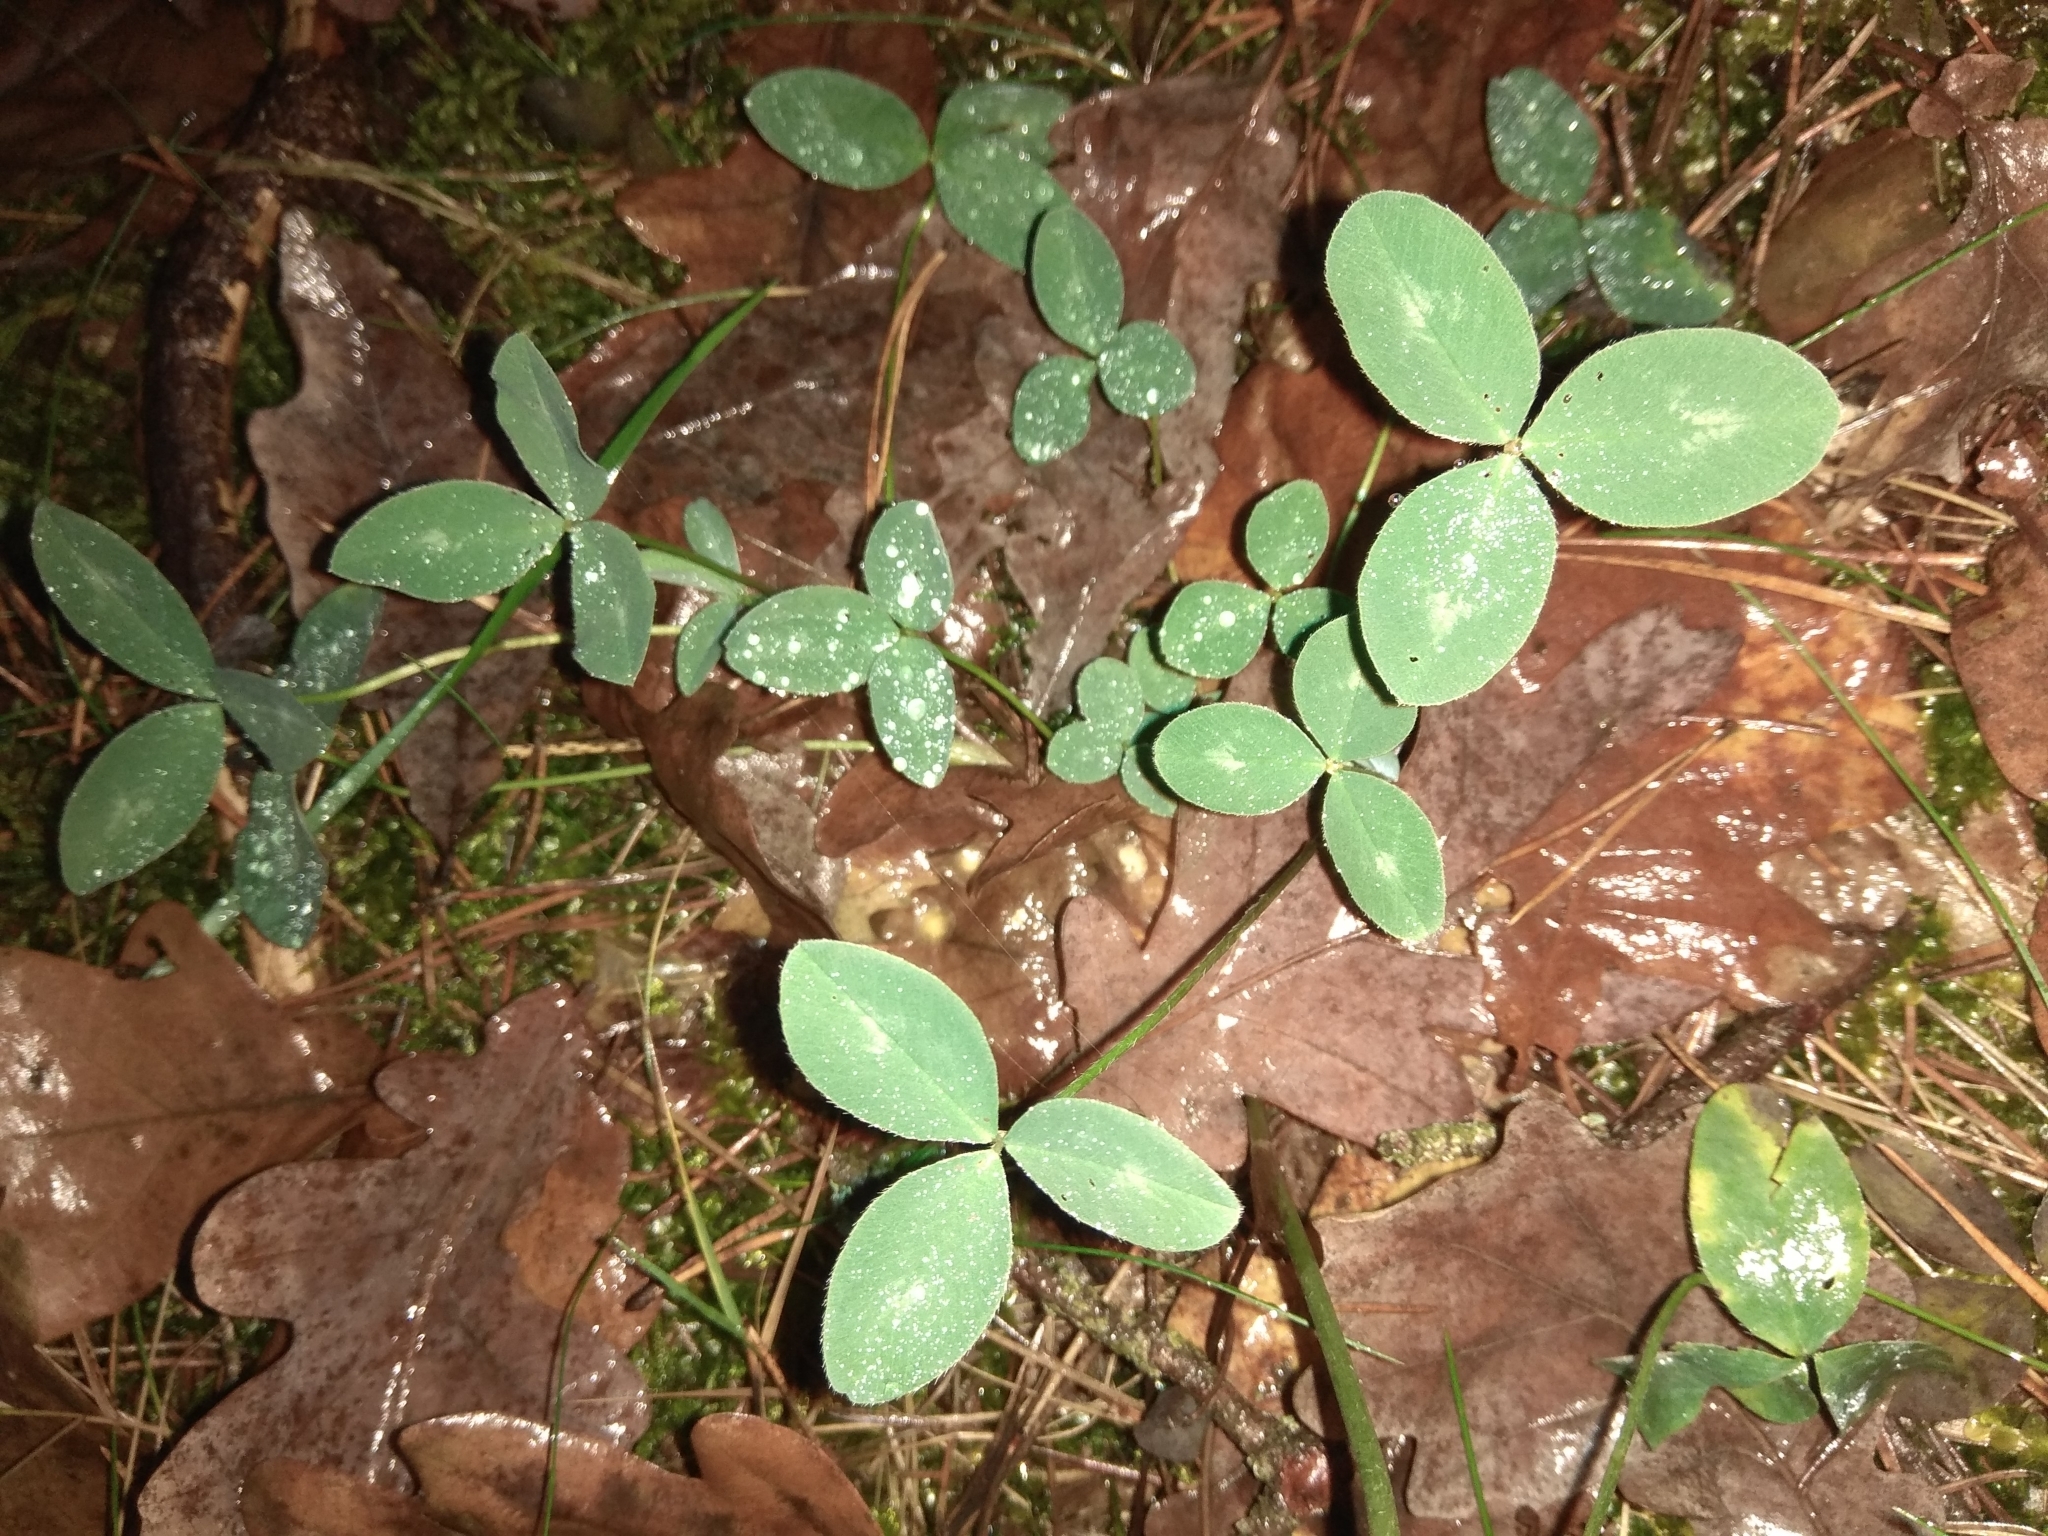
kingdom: Plantae
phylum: Tracheophyta
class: Magnoliopsida
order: Fabales
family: Fabaceae
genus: Trifolium
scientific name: Trifolium pratense
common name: Red clover
